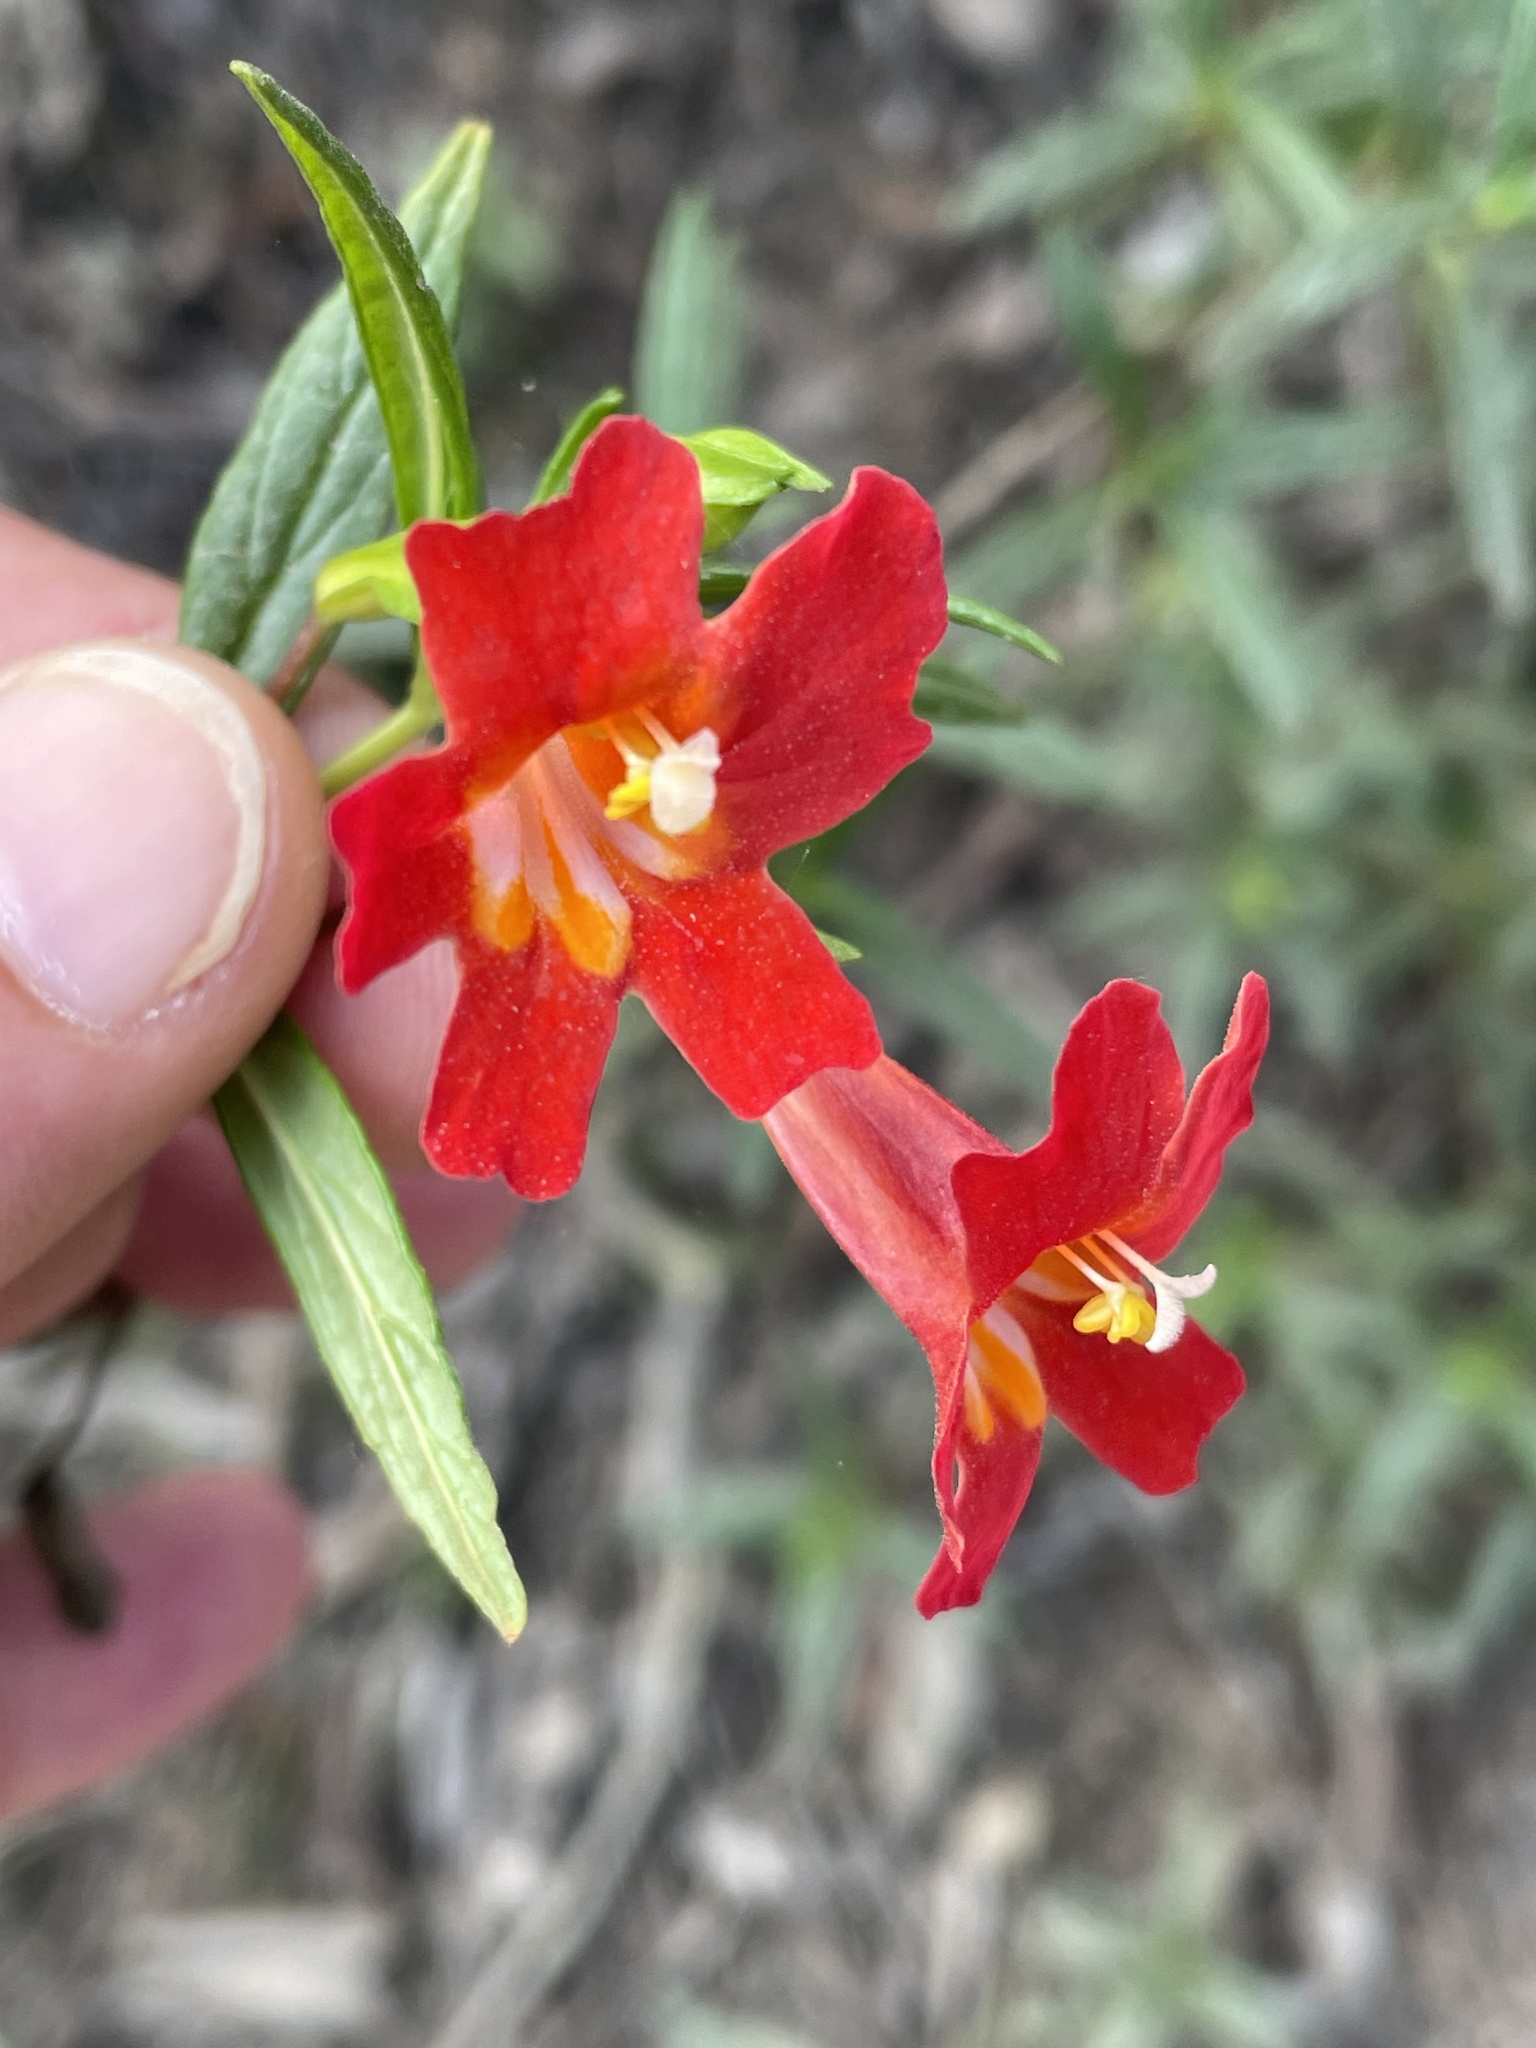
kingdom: Plantae
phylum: Tracheophyta
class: Magnoliopsida
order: Lamiales
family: Phrymaceae
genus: Diplacus
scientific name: Diplacus puniceus
